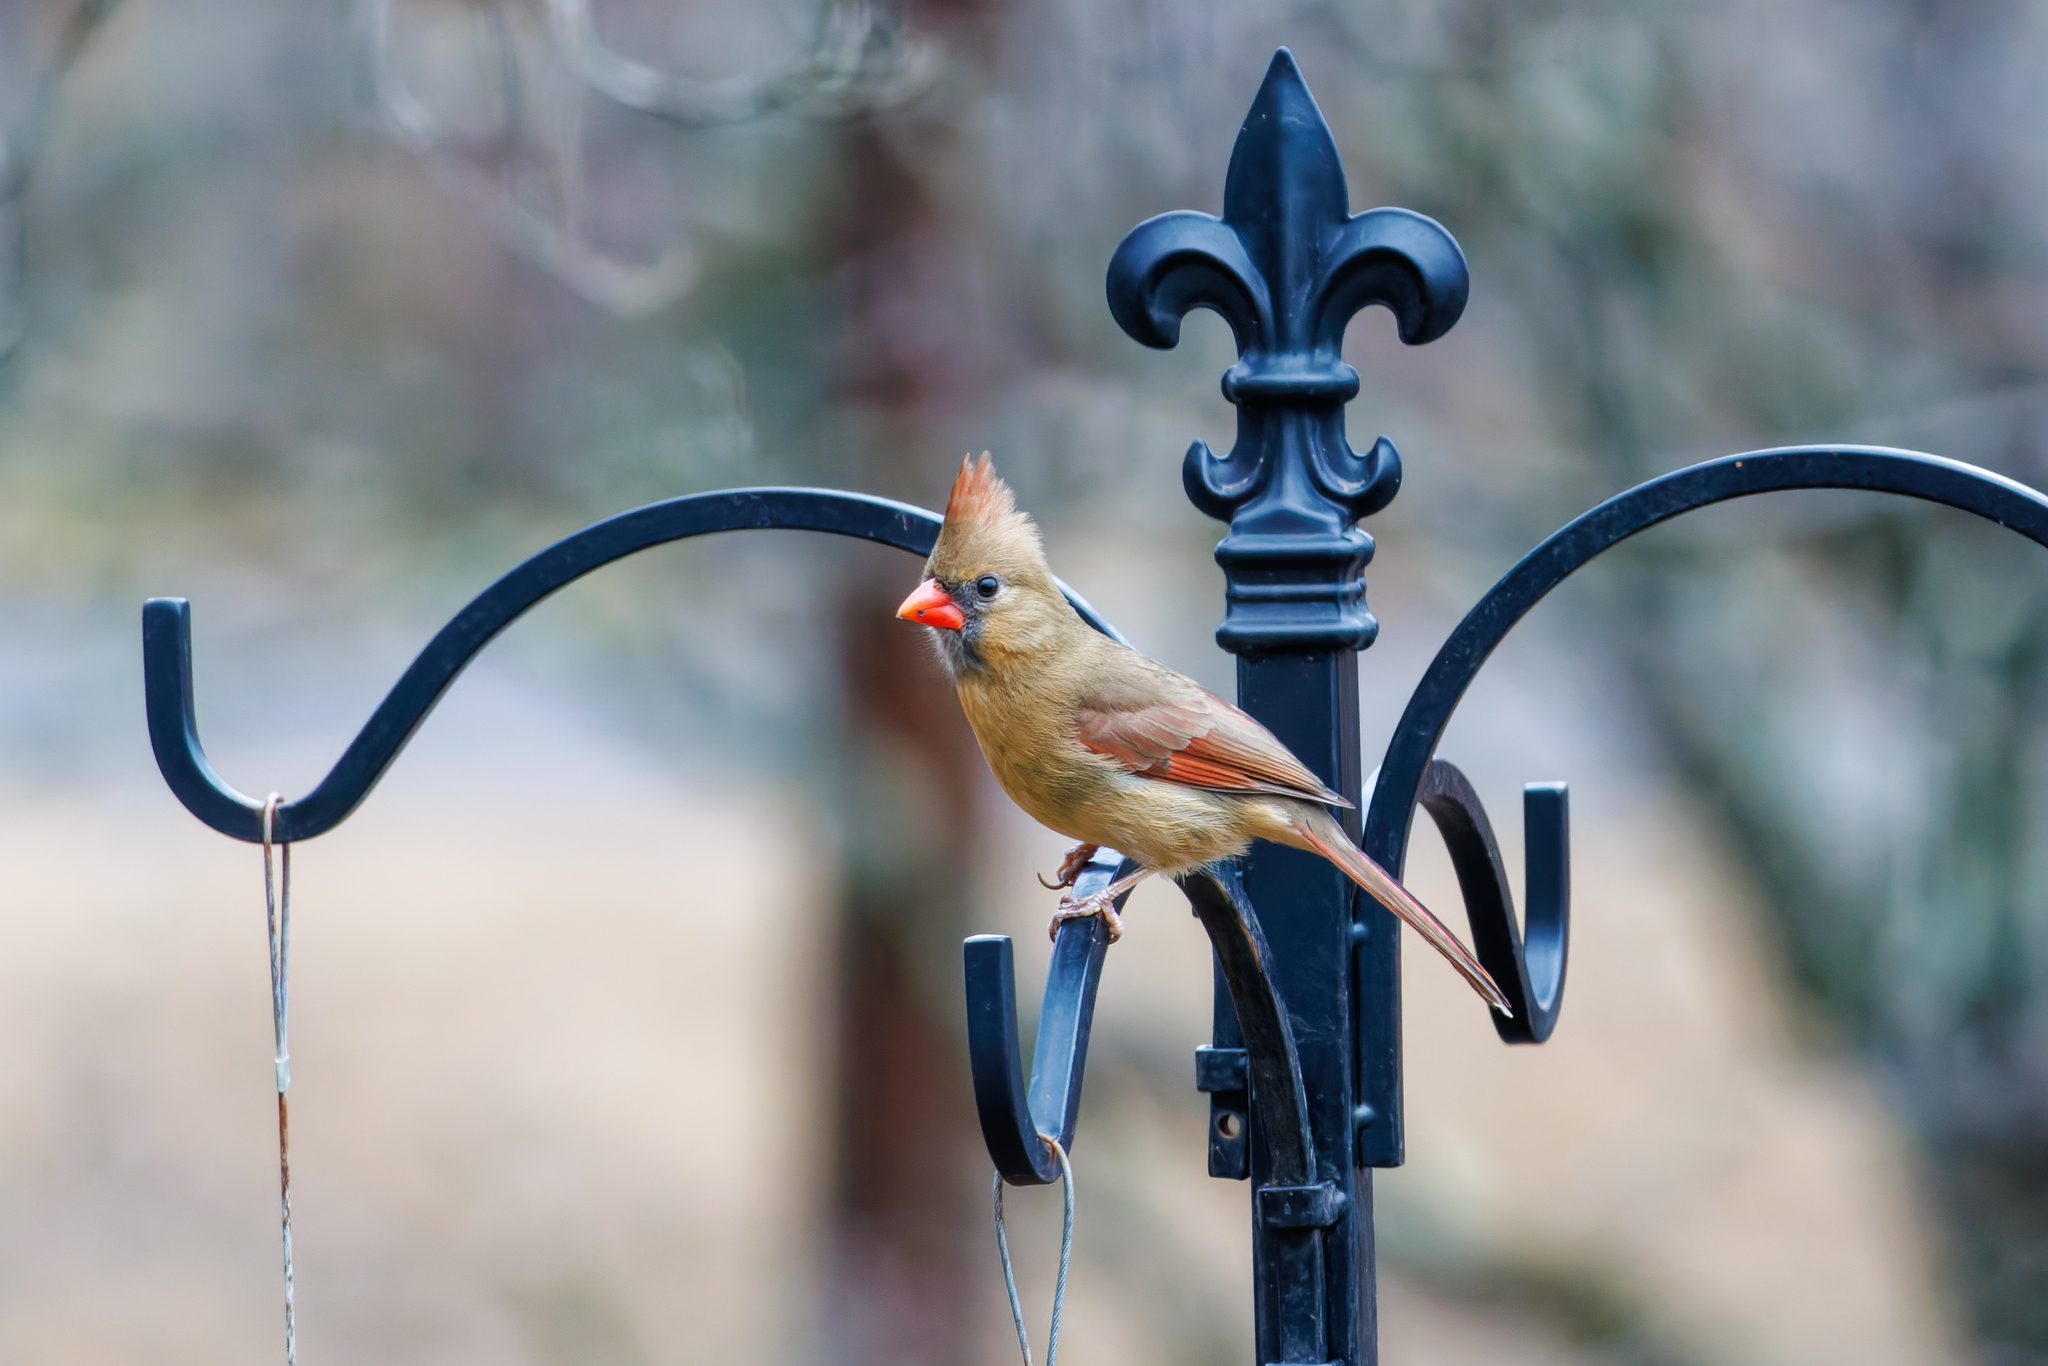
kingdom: Animalia
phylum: Chordata
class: Aves
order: Passeriformes
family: Cardinalidae
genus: Cardinalis
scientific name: Cardinalis cardinalis
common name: Northern cardinal
